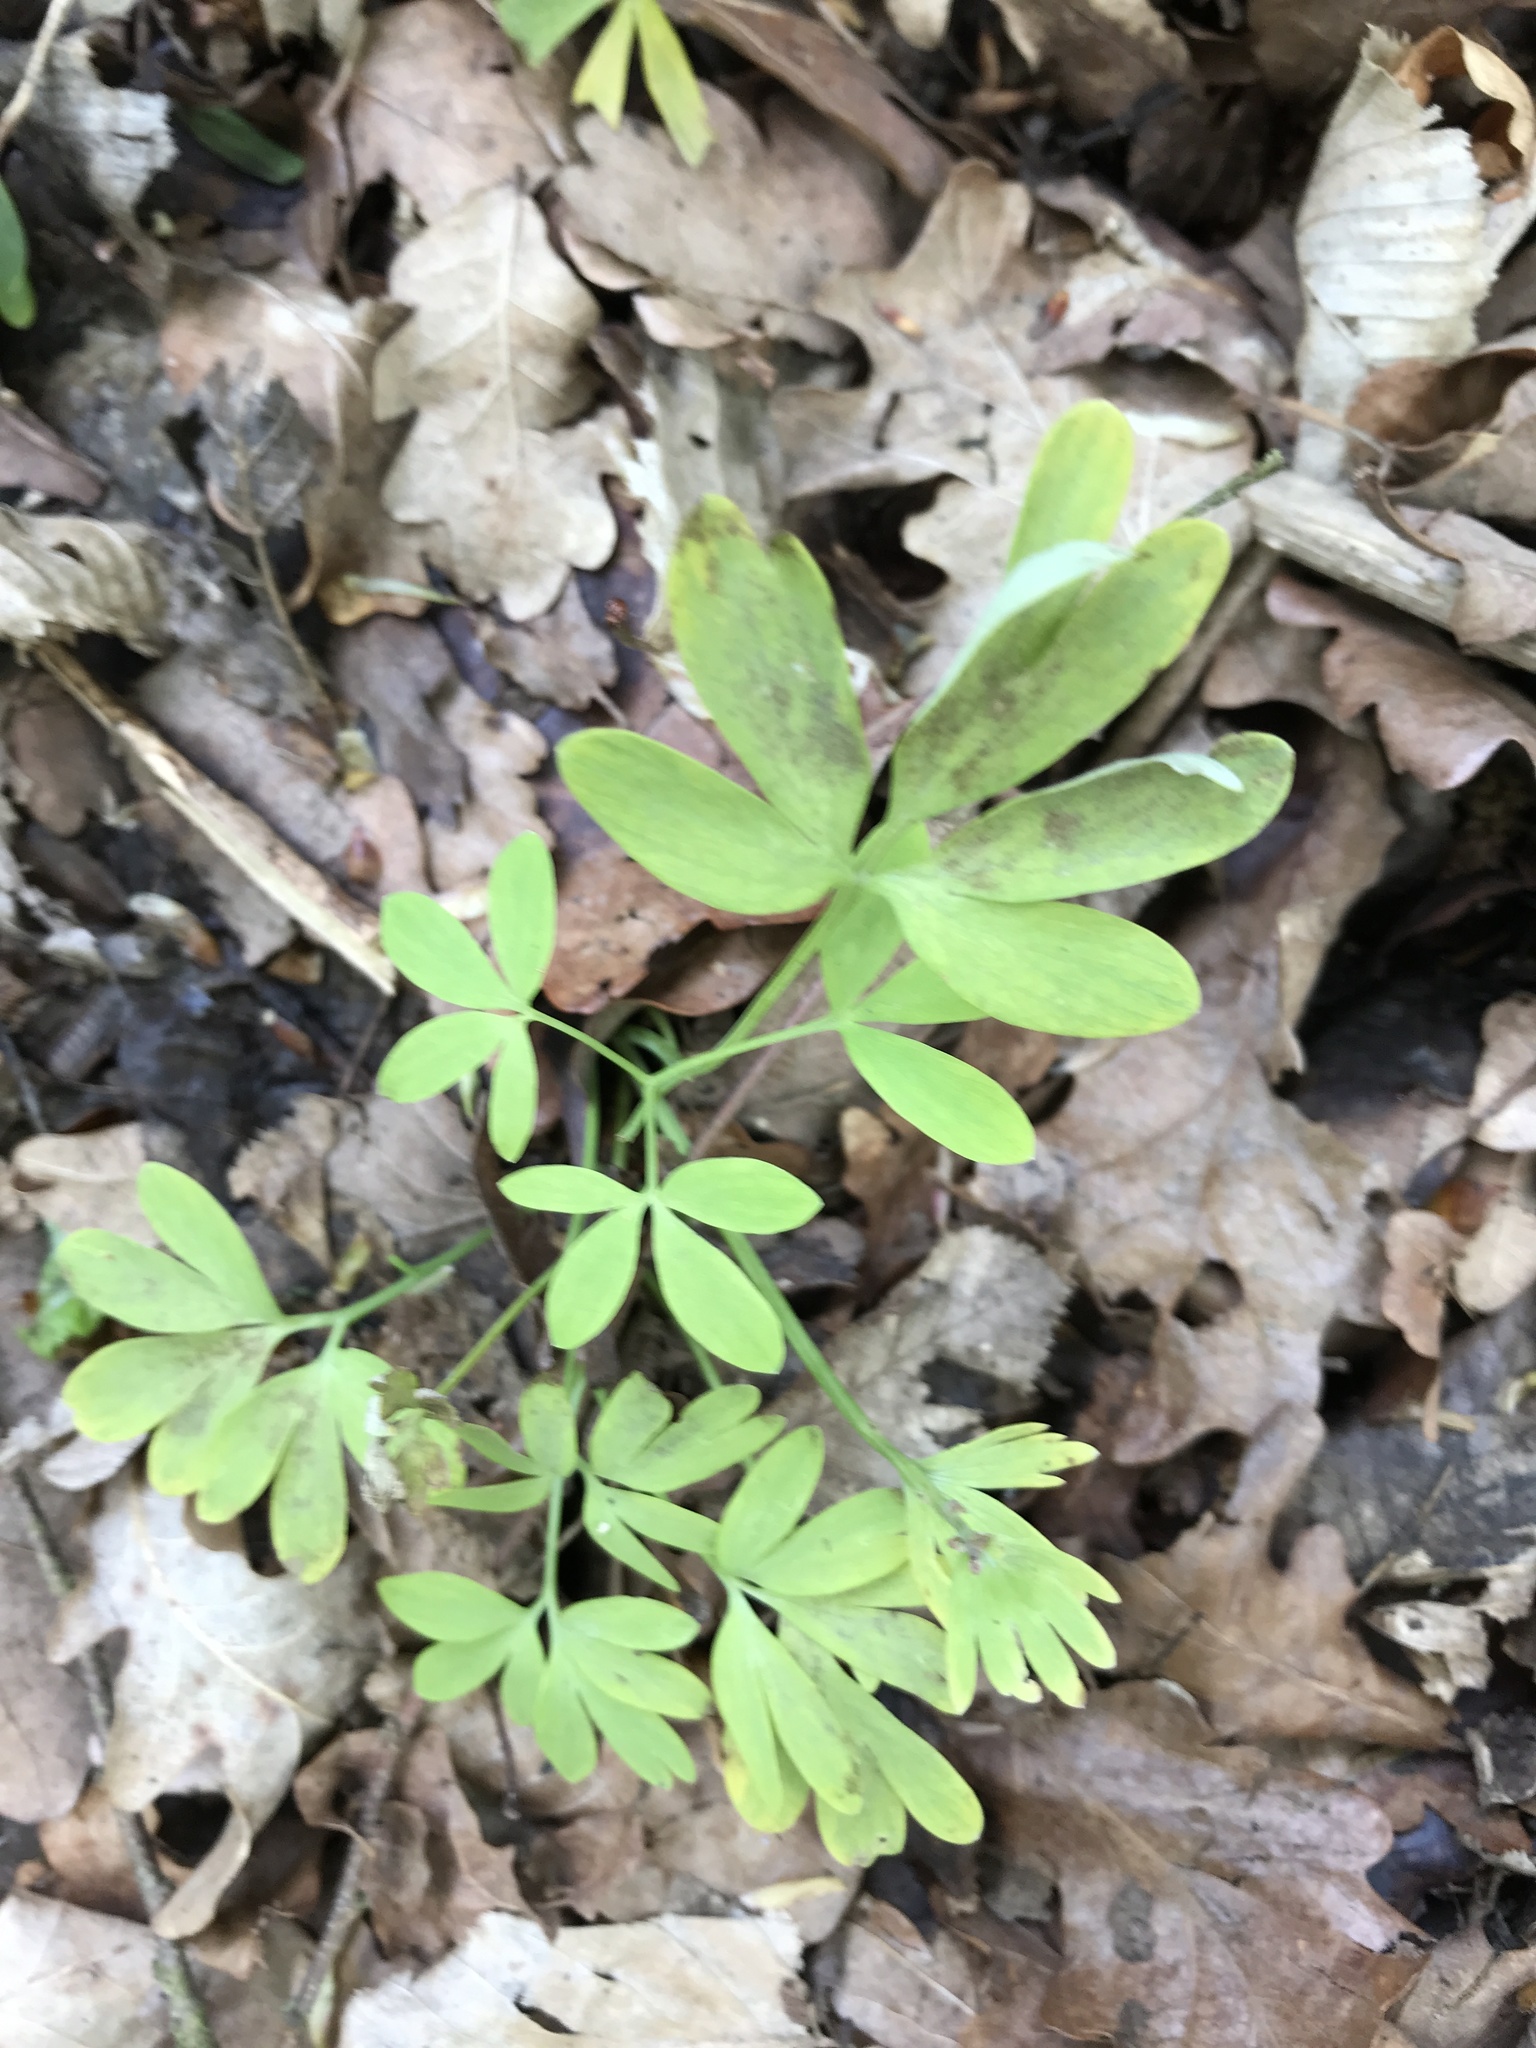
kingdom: Plantae
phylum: Tracheophyta
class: Magnoliopsida
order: Ranunculales
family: Papaveraceae
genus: Corydalis
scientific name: Corydalis solida
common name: Bird-in-a-bush
